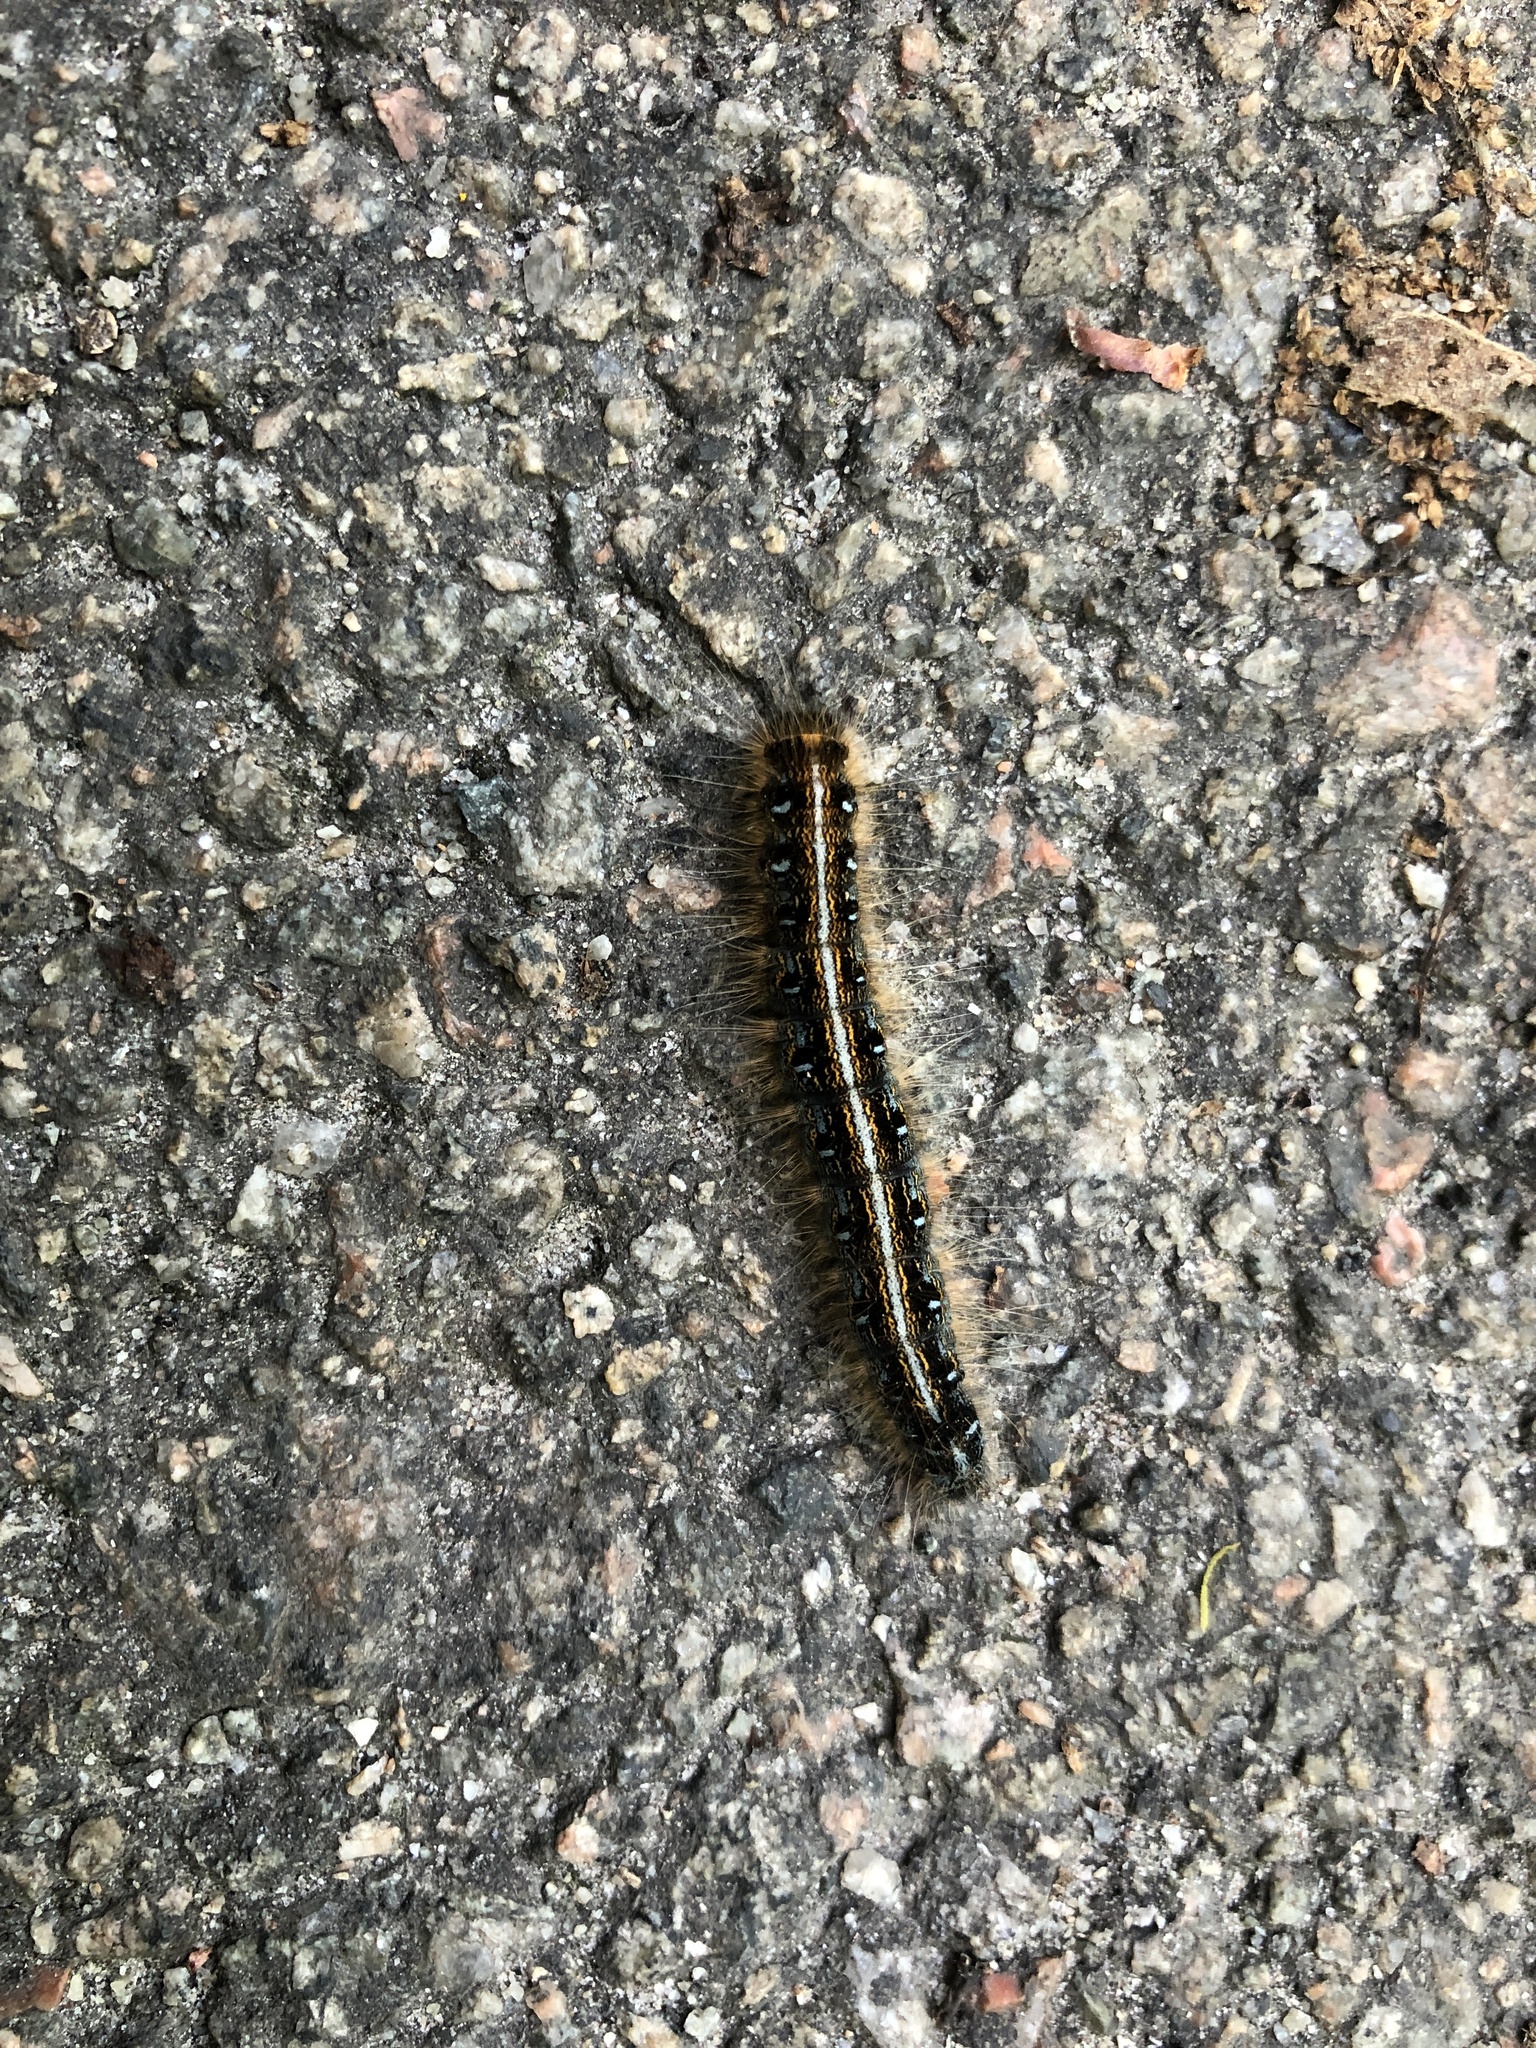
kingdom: Animalia
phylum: Arthropoda
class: Insecta
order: Lepidoptera
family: Lasiocampidae
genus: Malacosoma
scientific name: Malacosoma americana
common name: Eastern tent caterpillar moth
